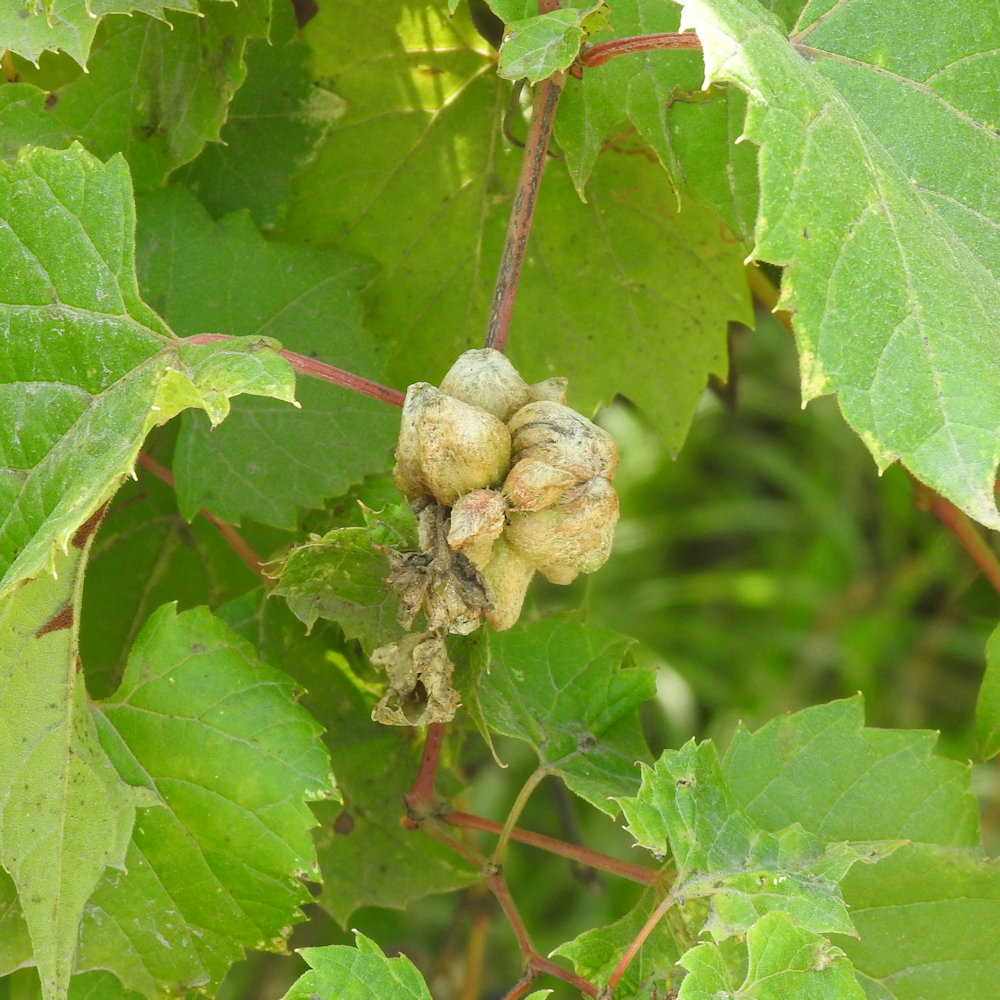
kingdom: Animalia
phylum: Arthropoda
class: Insecta
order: Diptera
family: Cecidomyiidae
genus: Ampelomyia
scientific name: Ampelomyia vitiscoryloides
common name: Grape filbert gall
